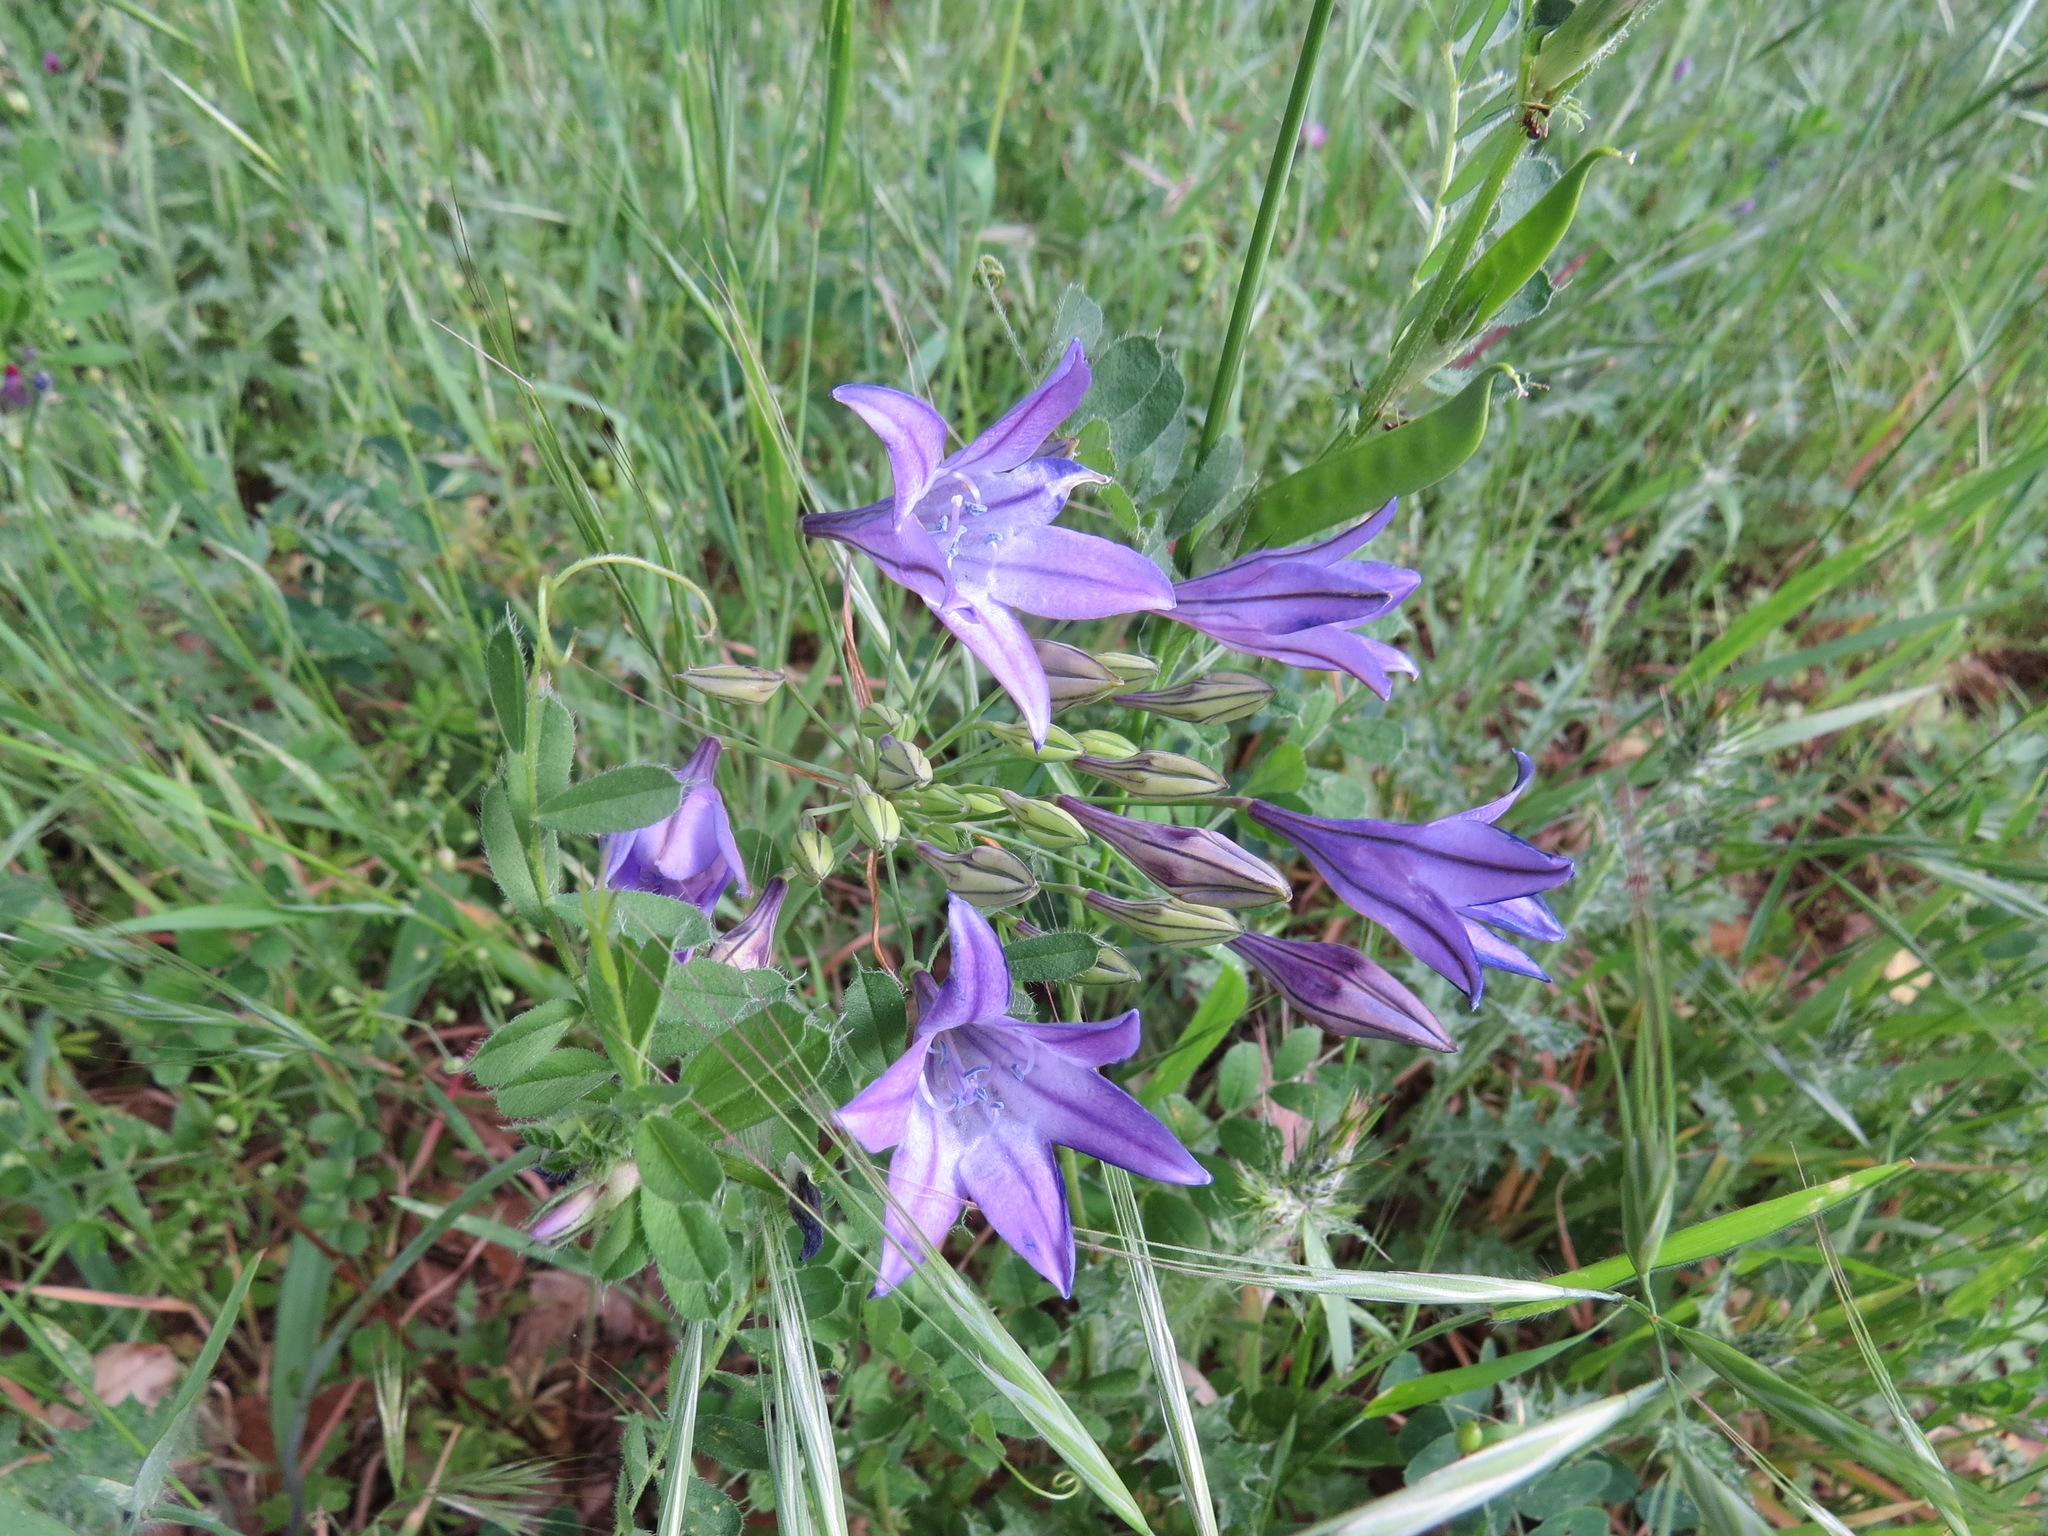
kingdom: Plantae
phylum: Tracheophyta
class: Liliopsida
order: Asparagales
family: Asparagaceae
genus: Triteleia
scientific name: Triteleia laxa
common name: Triplet-lily
